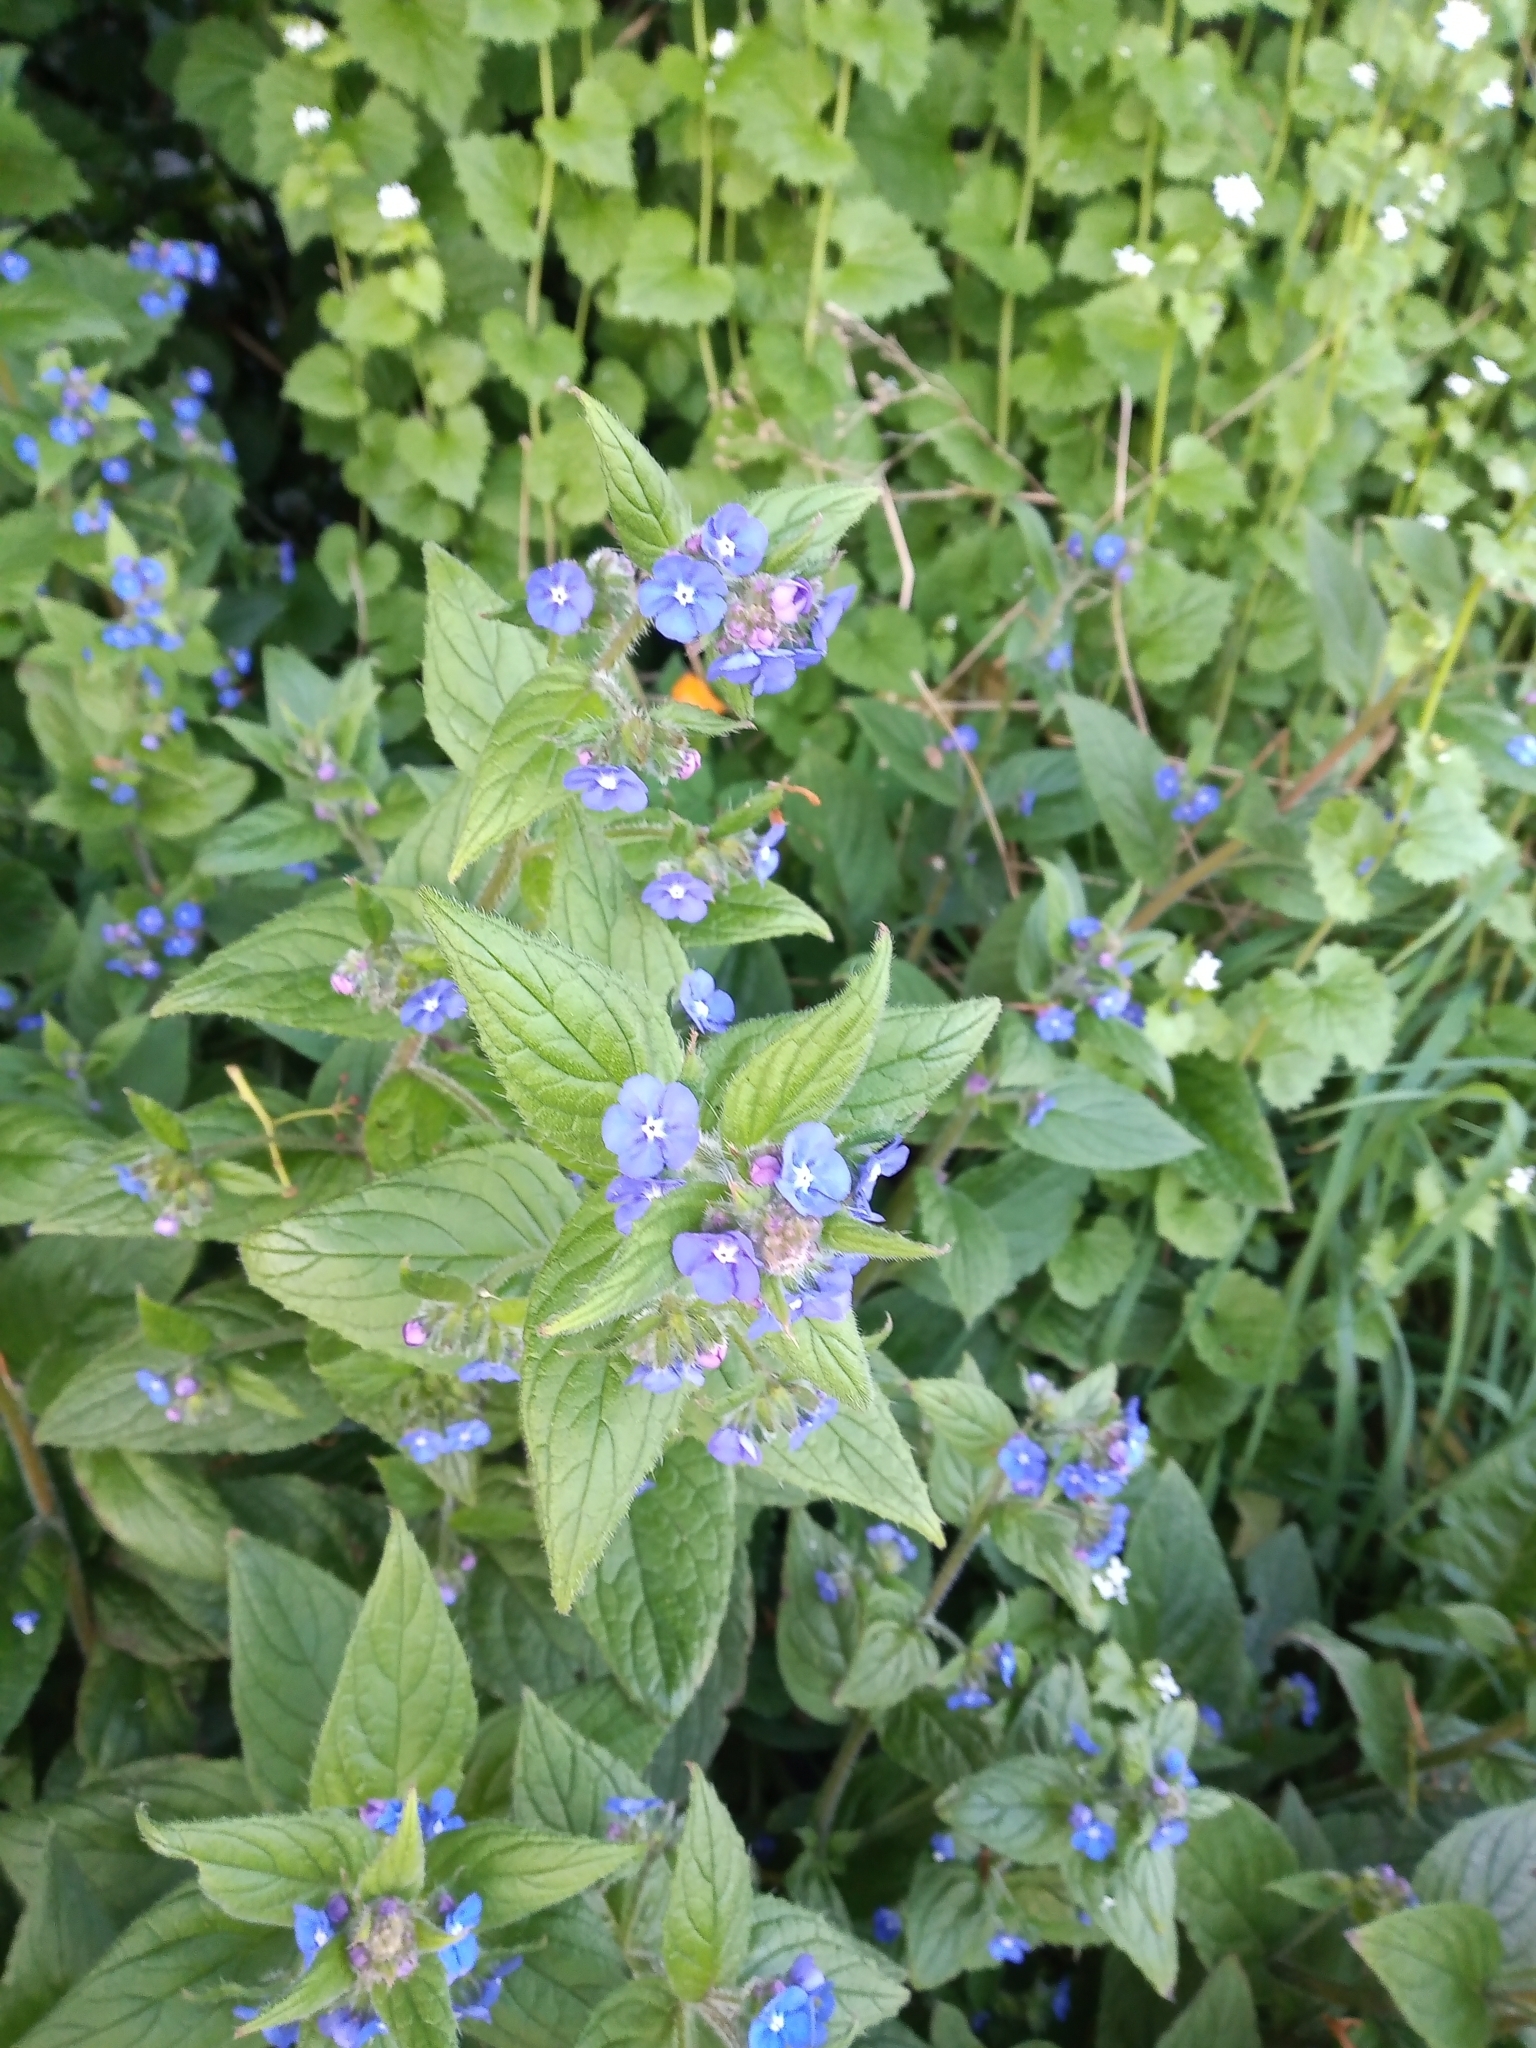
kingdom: Plantae
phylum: Tracheophyta
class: Magnoliopsida
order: Boraginales
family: Boraginaceae
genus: Pentaglottis
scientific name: Pentaglottis sempervirens
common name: Green alkanet
